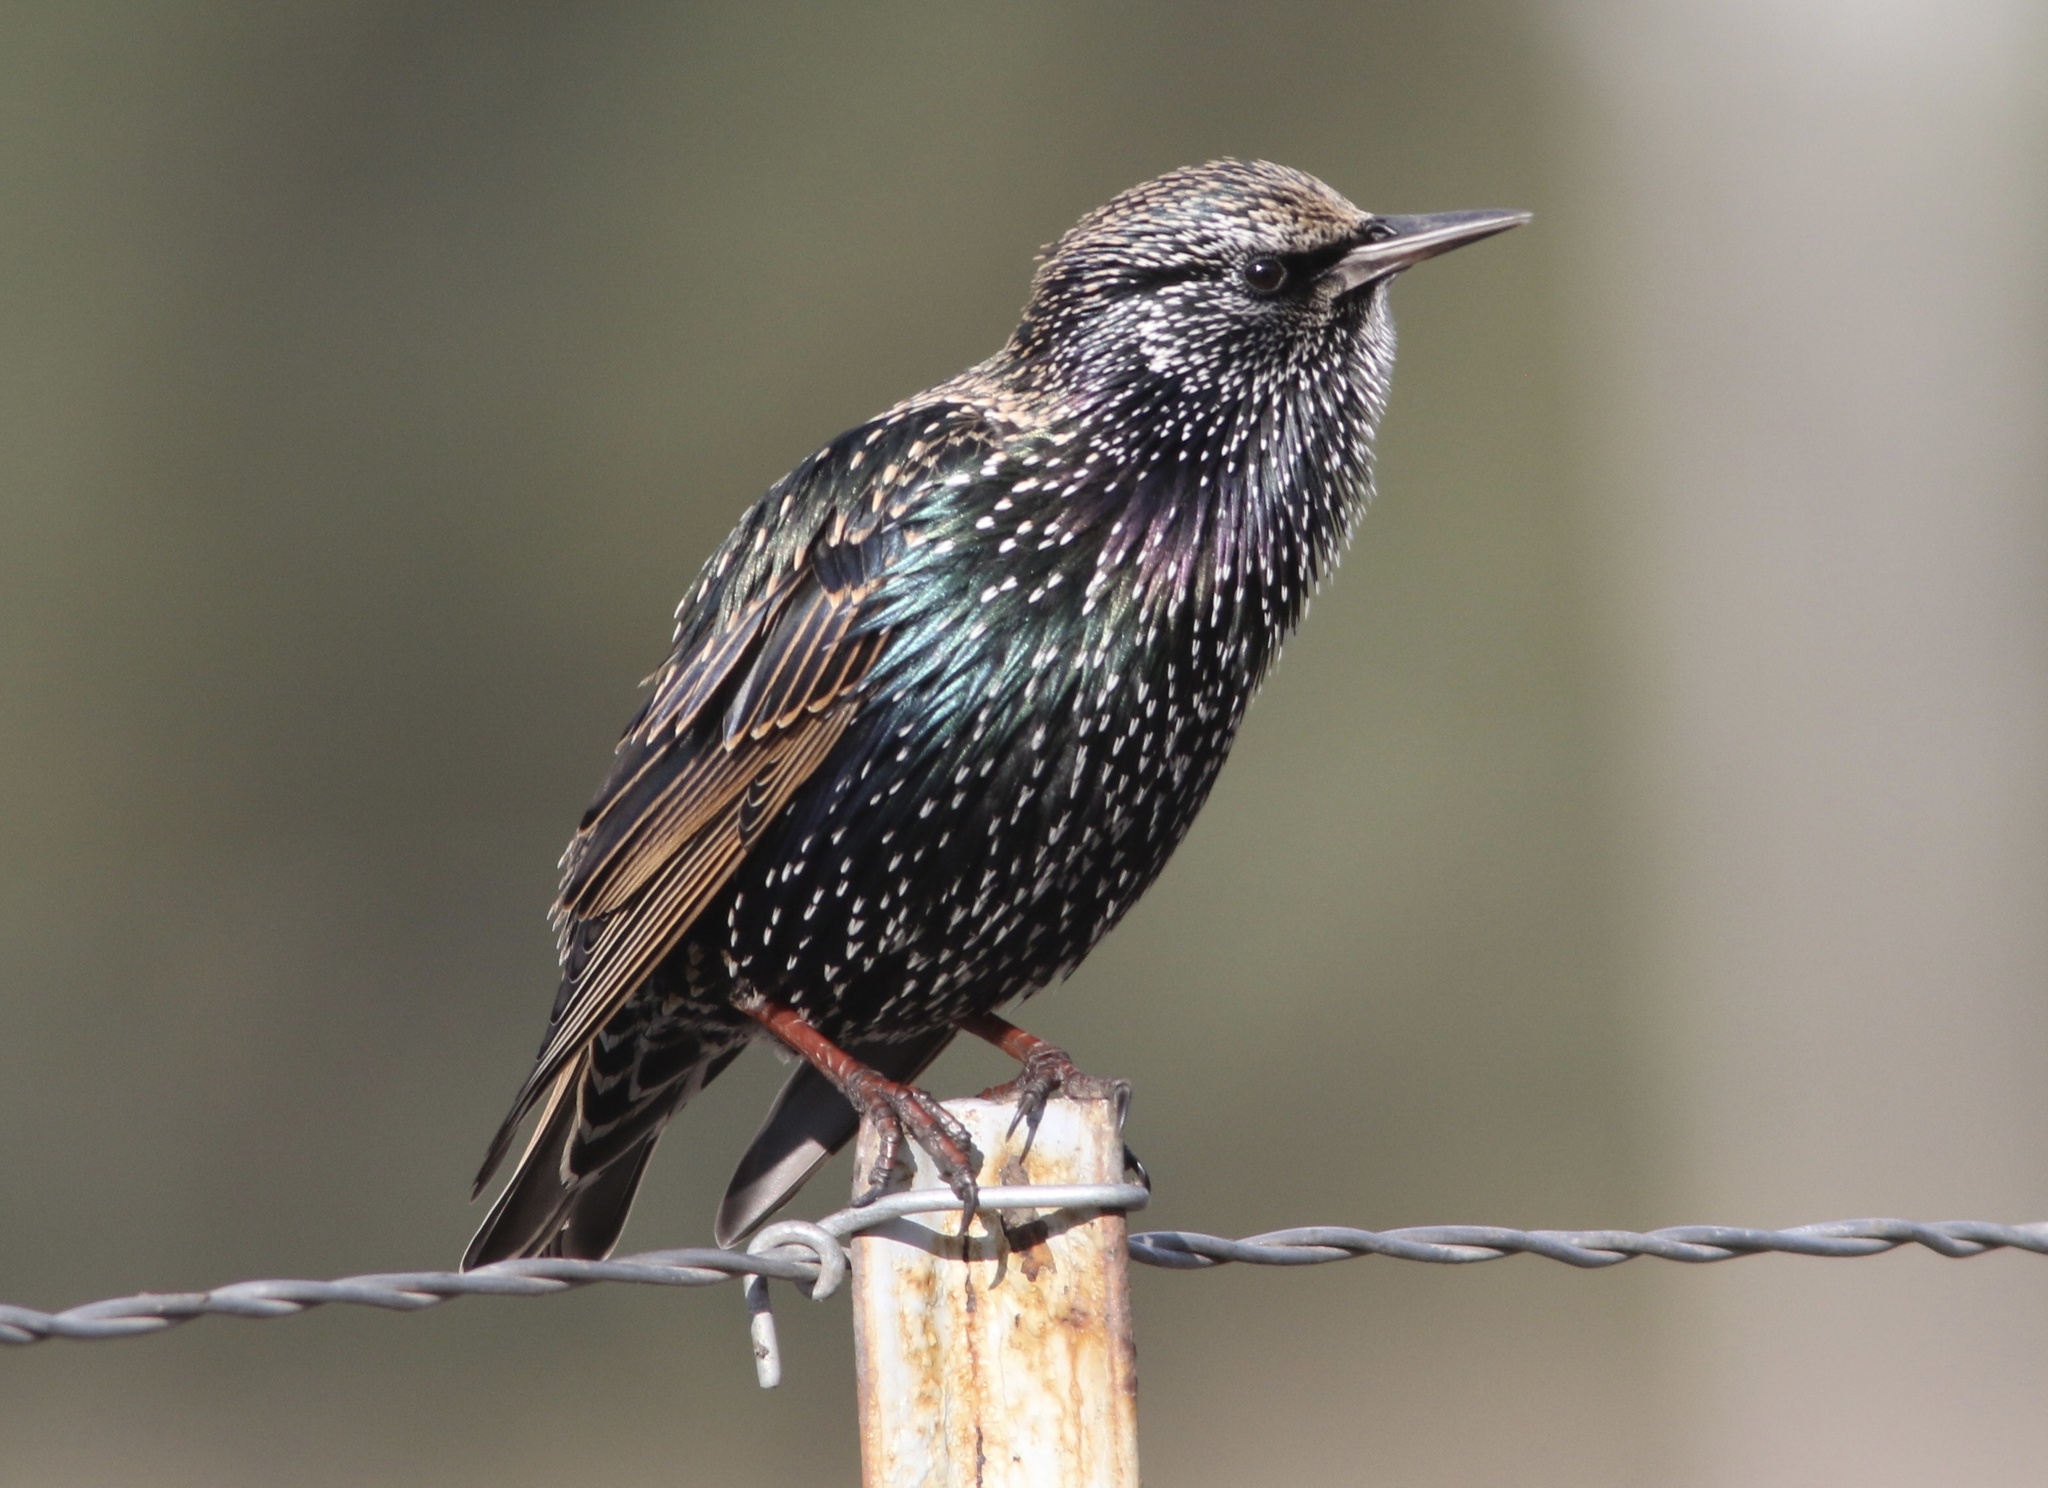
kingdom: Animalia
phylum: Chordata
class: Aves
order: Passeriformes
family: Sturnidae
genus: Sturnus
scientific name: Sturnus vulgaris
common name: Common starling
